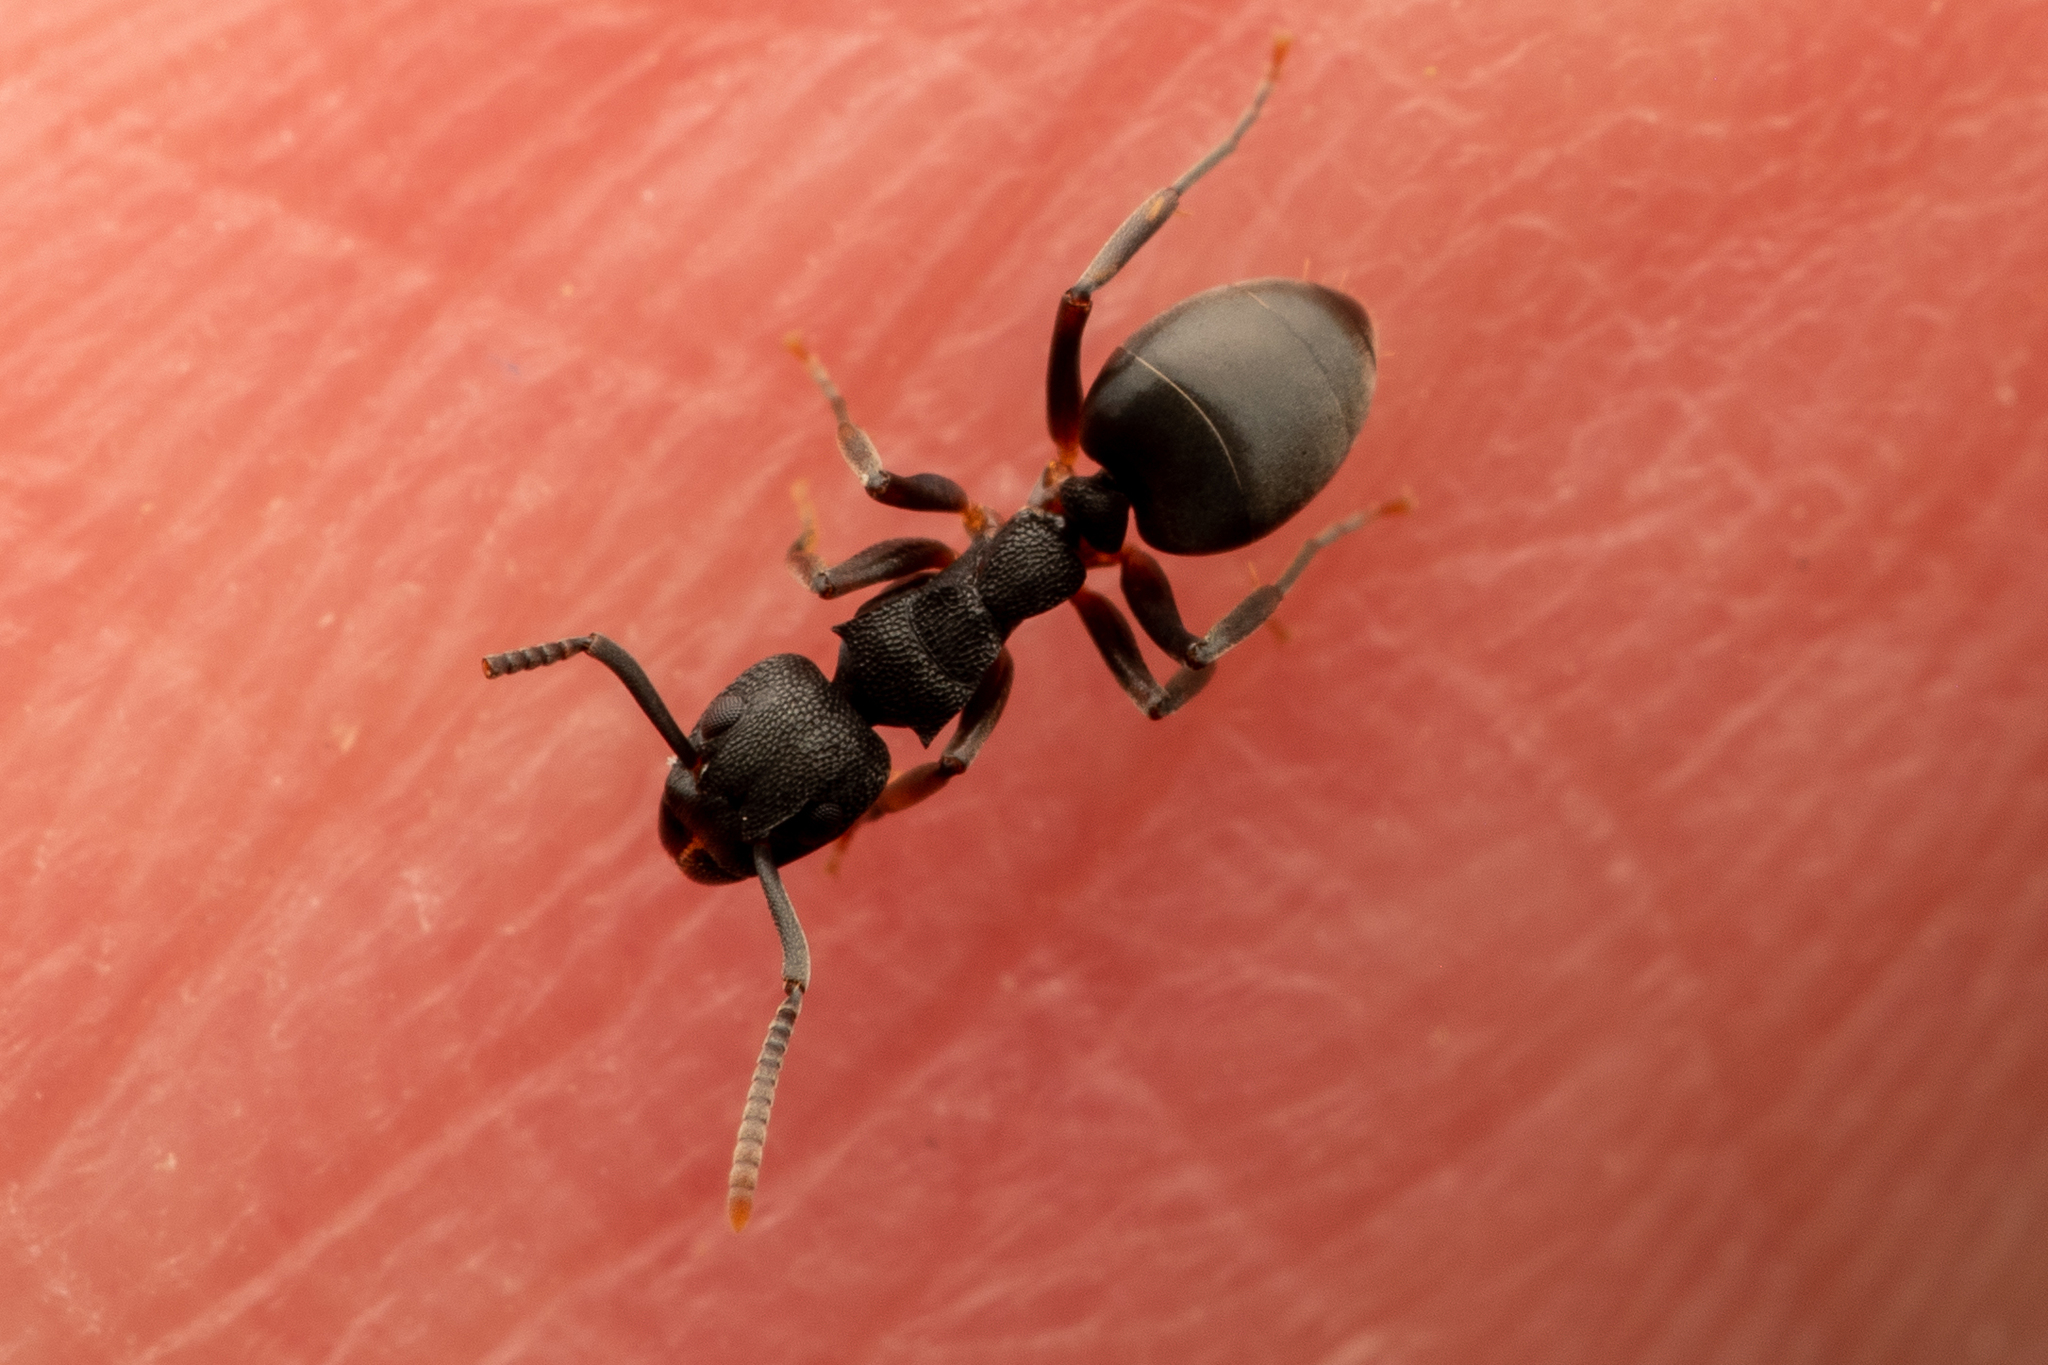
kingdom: Animalia
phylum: Arthropoda
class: Insecta
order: Hymenoptera
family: Formicidae
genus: Dolichoderus
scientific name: Dolichoderus lamellosus
